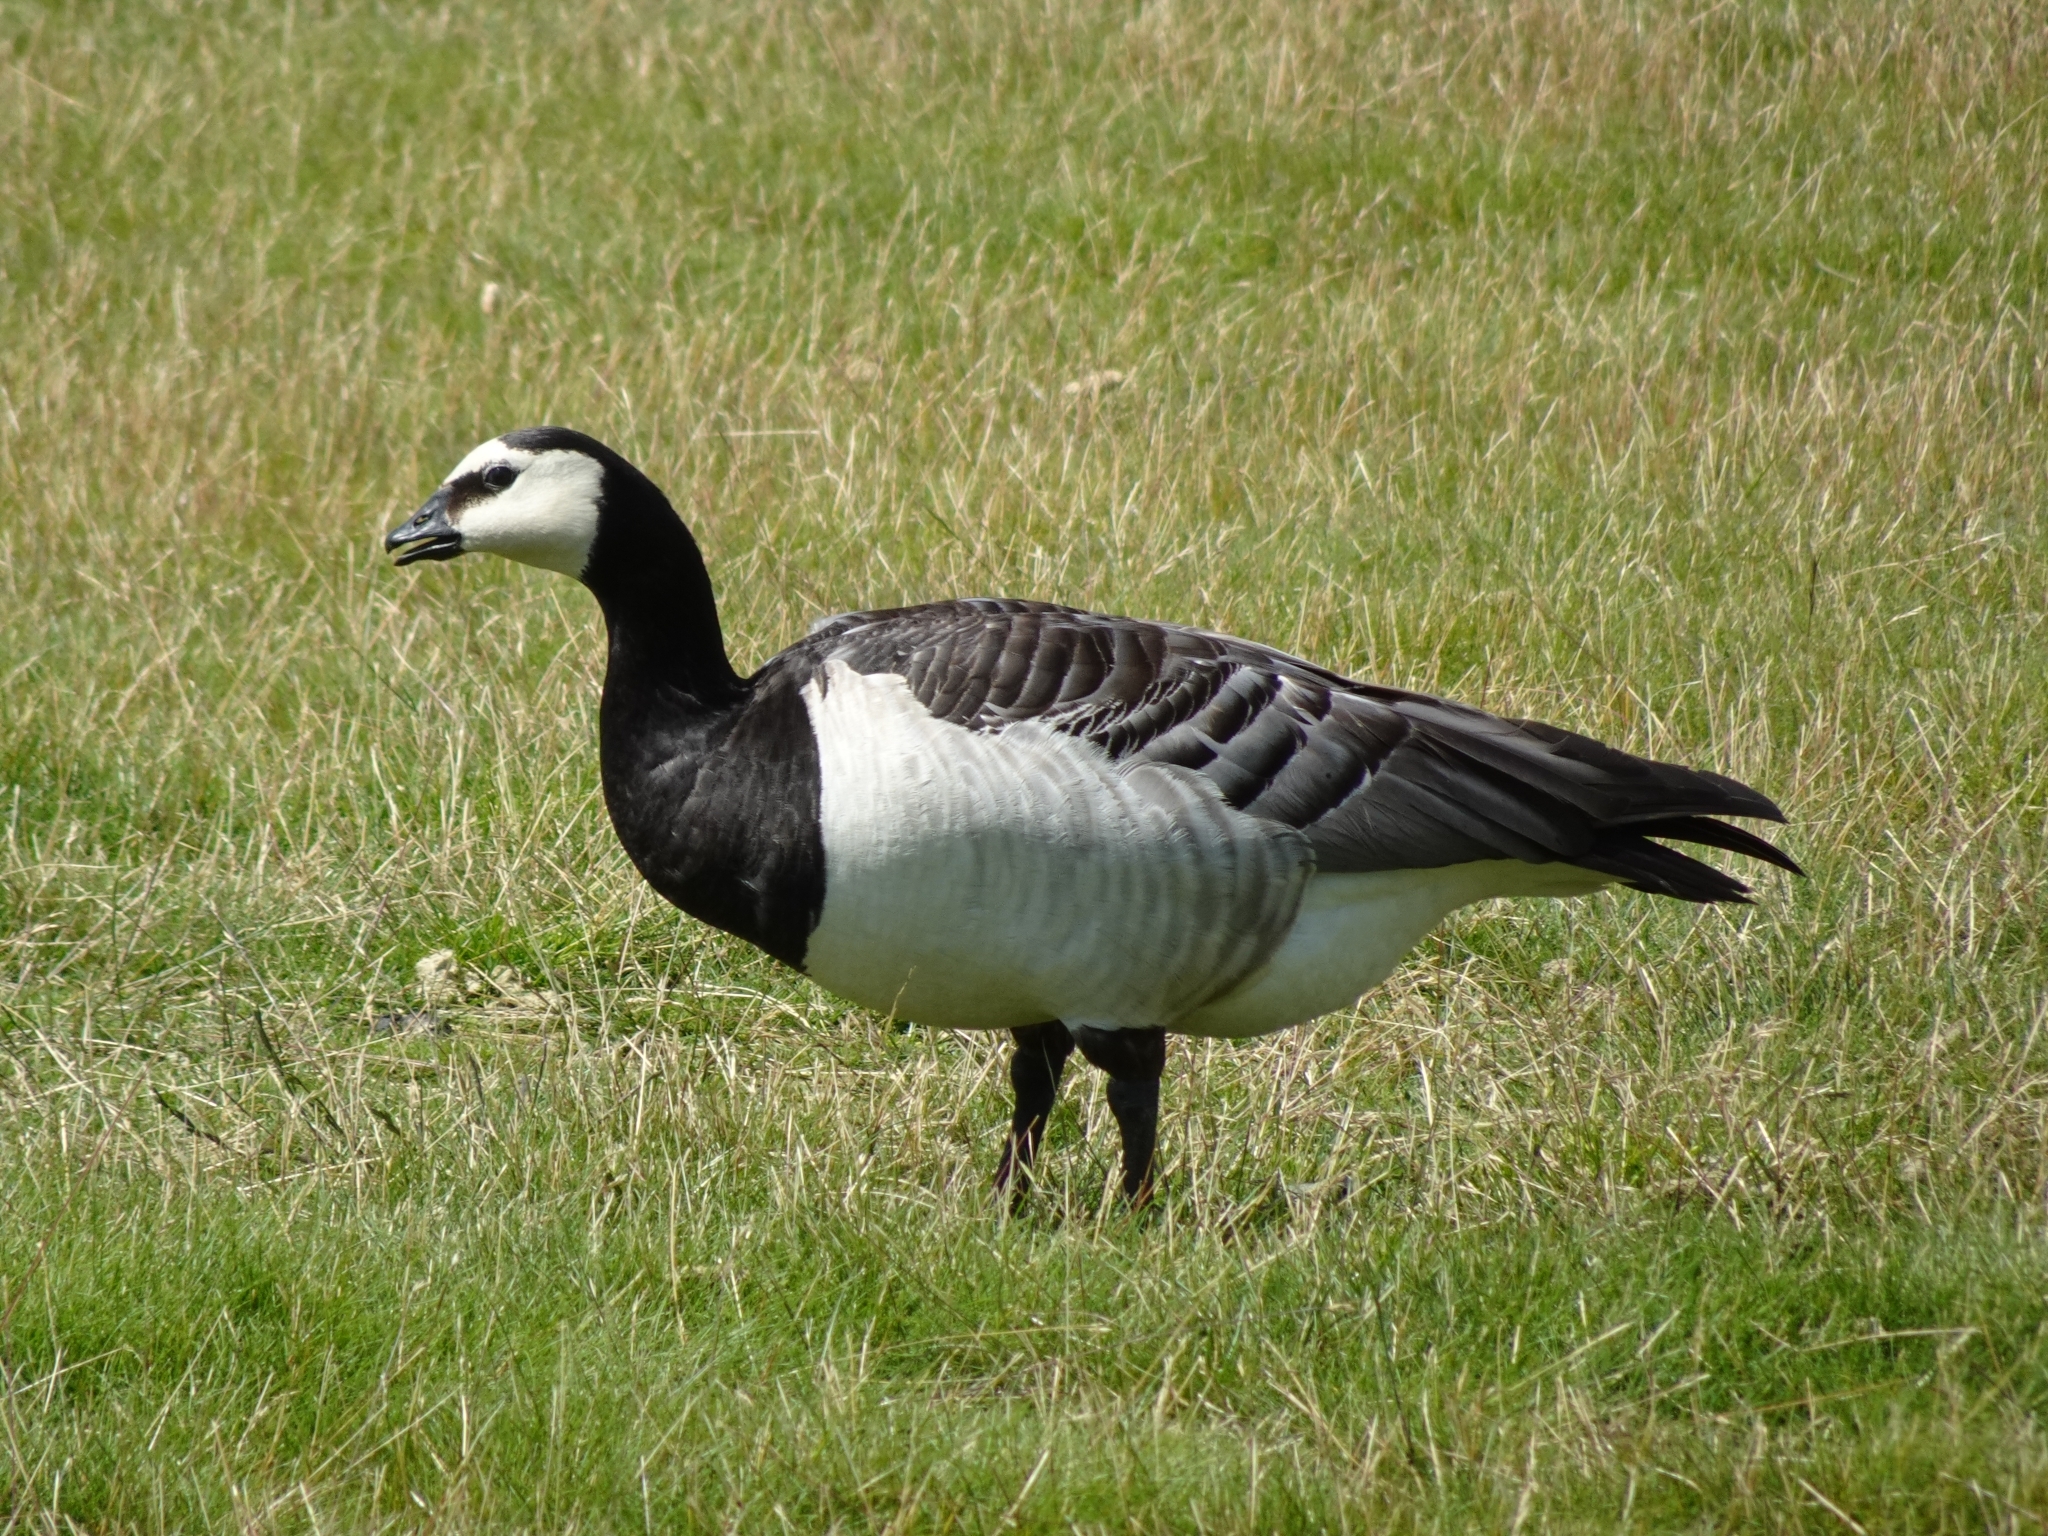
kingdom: Animalia
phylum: Chordata
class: Aves
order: Anseriformes
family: Anatidae
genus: Branta
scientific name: Branta leucopsis
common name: Barnacle goose
